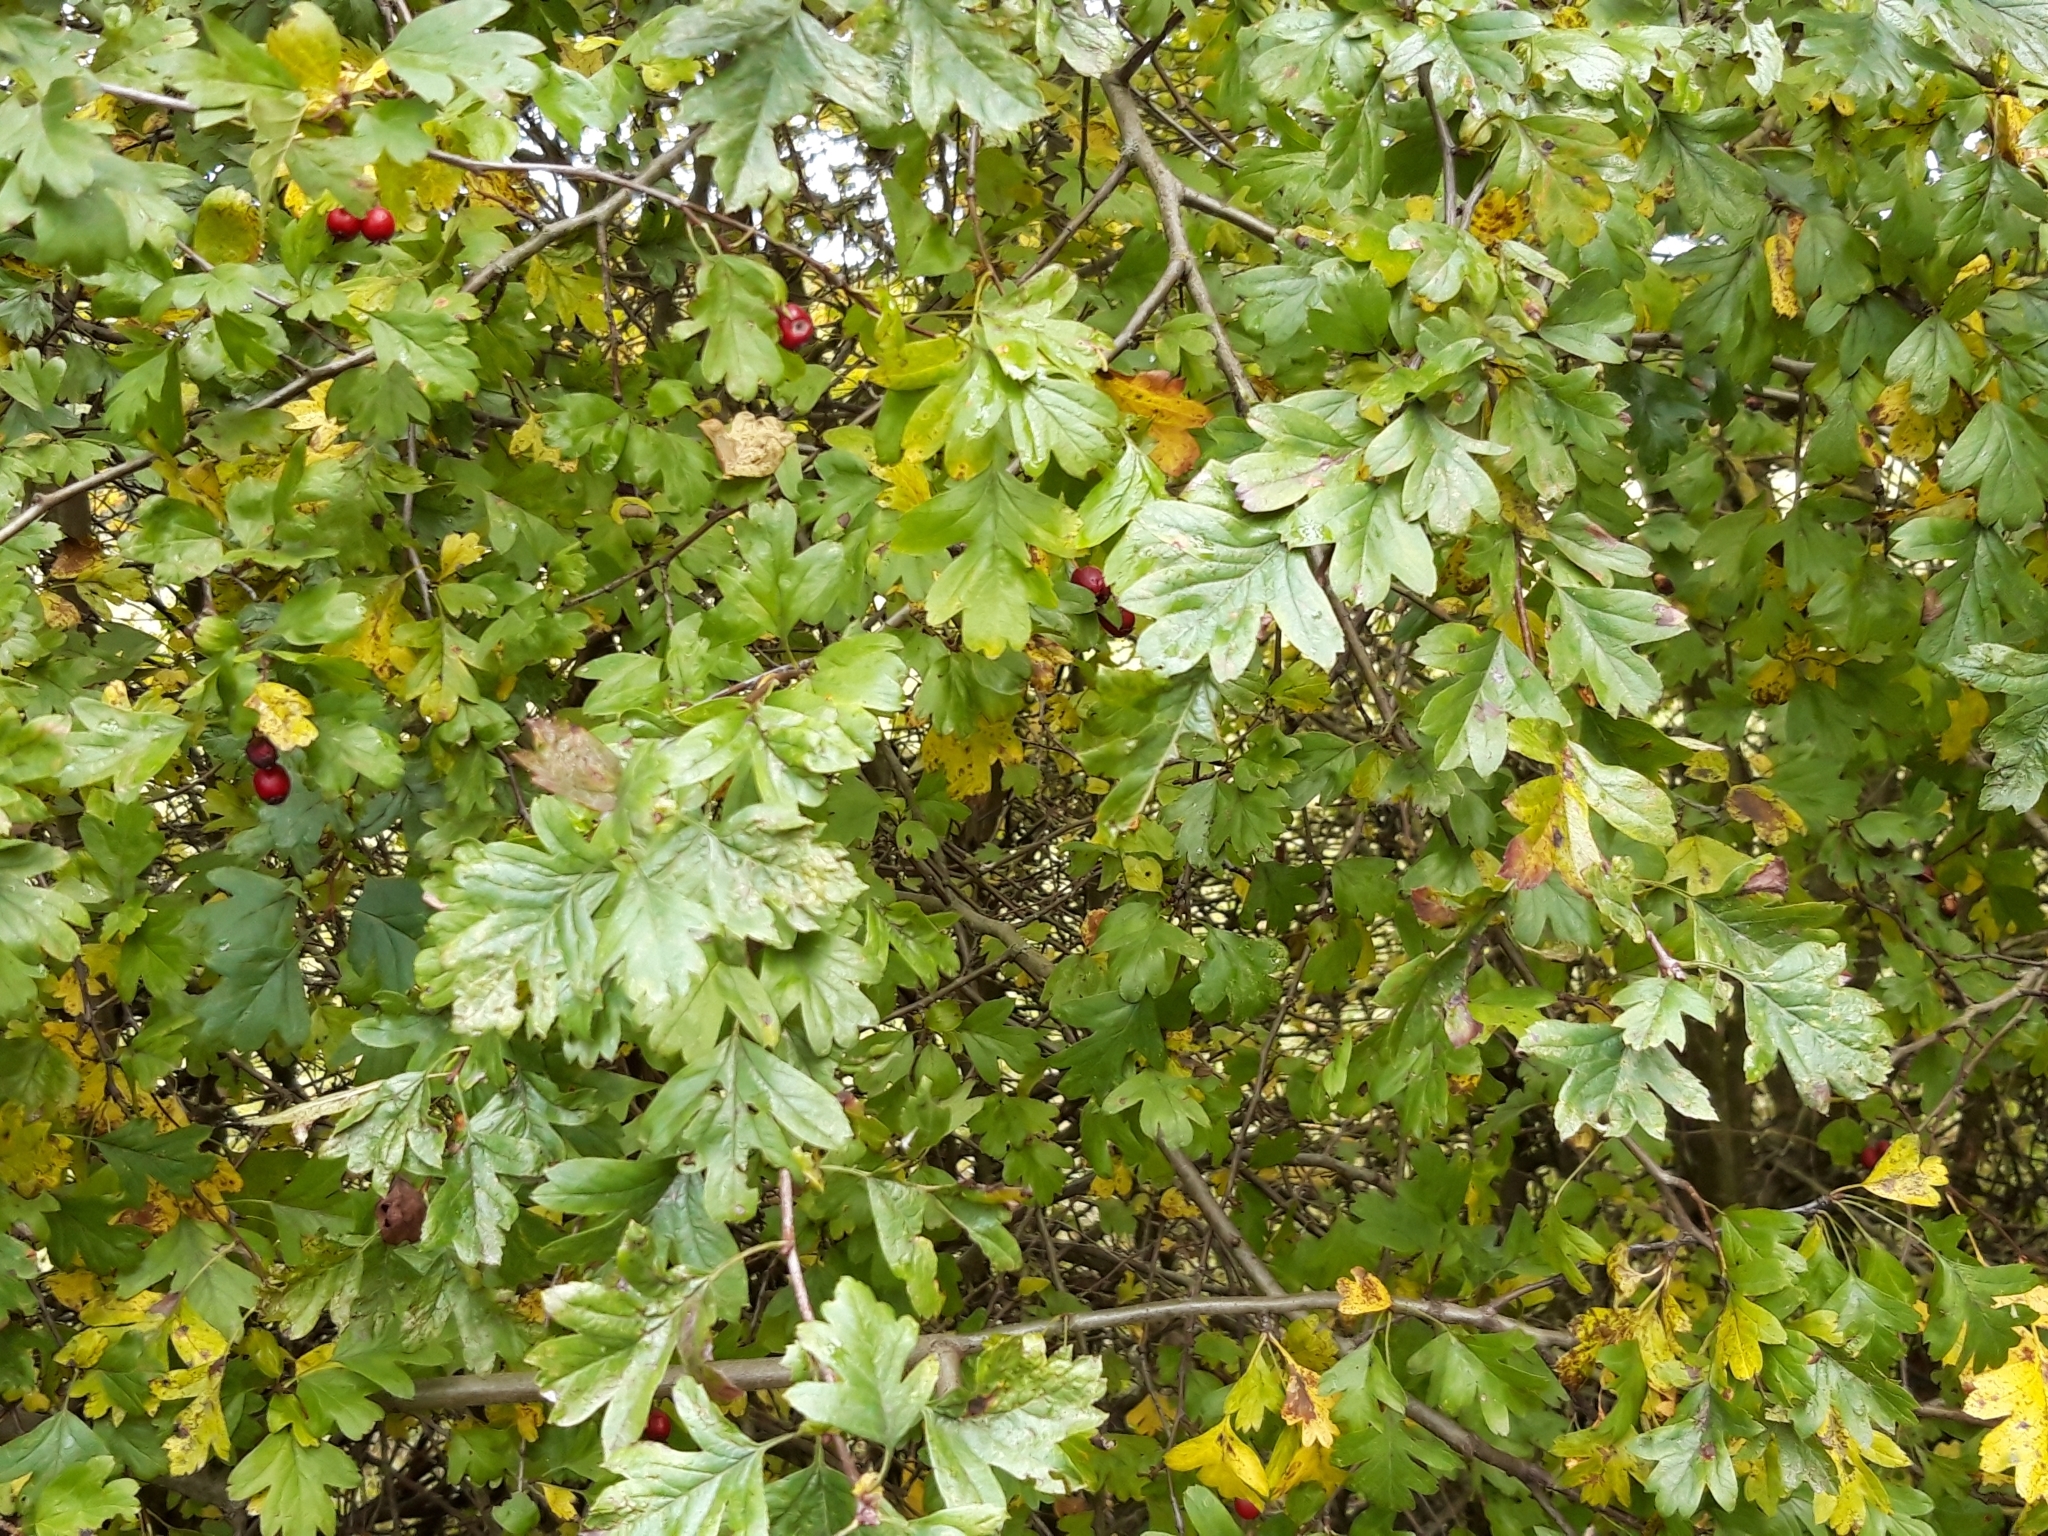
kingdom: Plantae
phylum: Tracheophyta
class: Magnoliopsida
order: Rosales
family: Rosaceae
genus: Crataegus
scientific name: Crataegus monogyna
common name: Hawthorn
